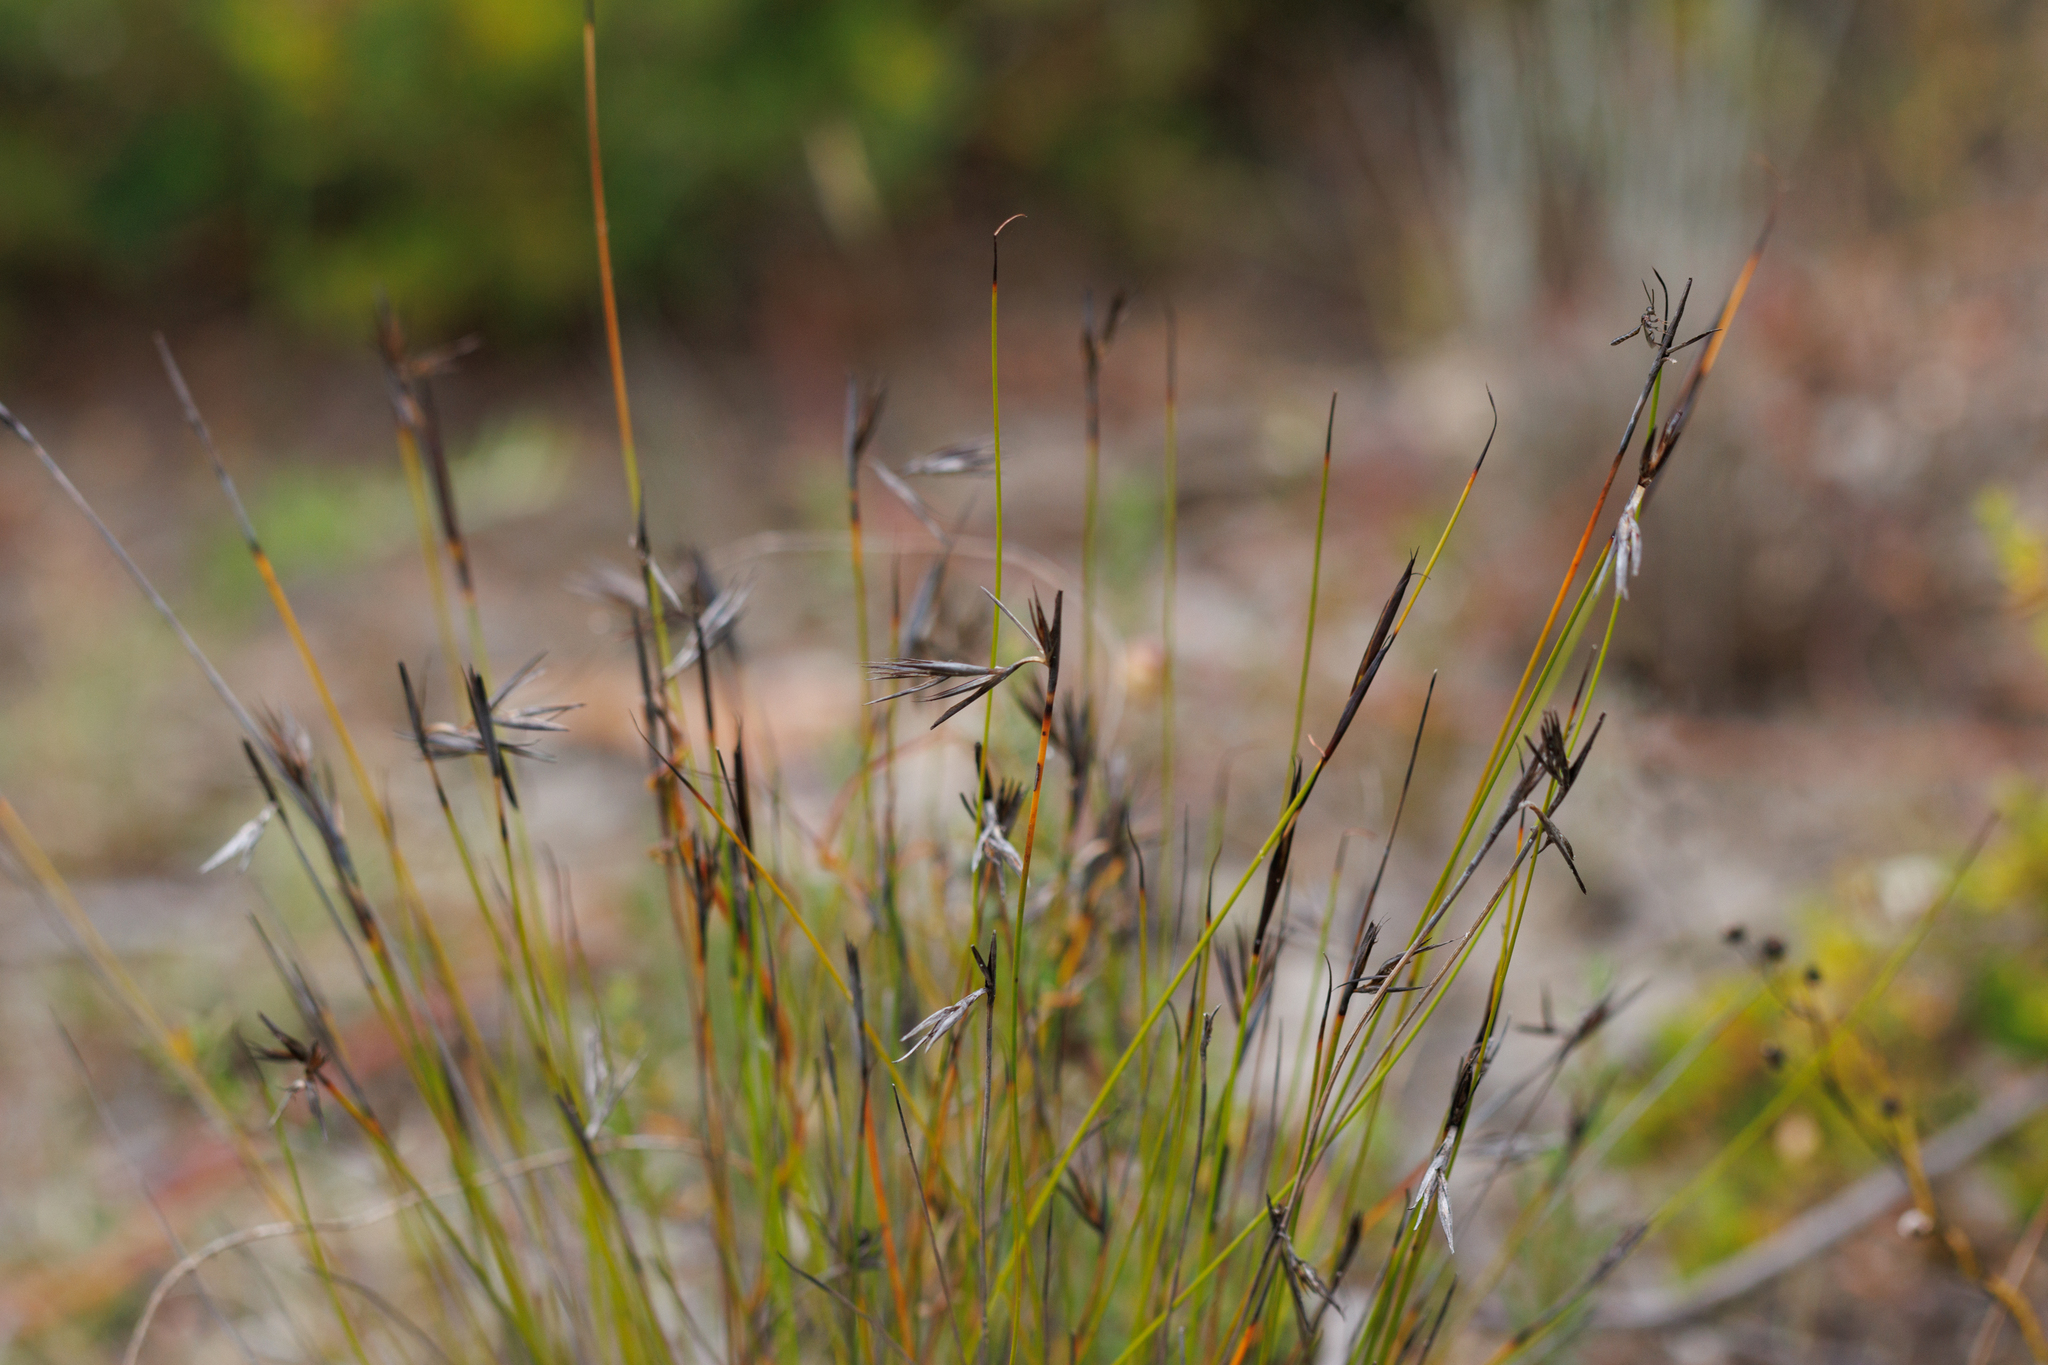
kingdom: Plantae
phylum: Tracheophyta
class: Liliopsida
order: Poales
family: Cyperaceae
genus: Lepidosperma
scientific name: Lepidosperma carphoides
